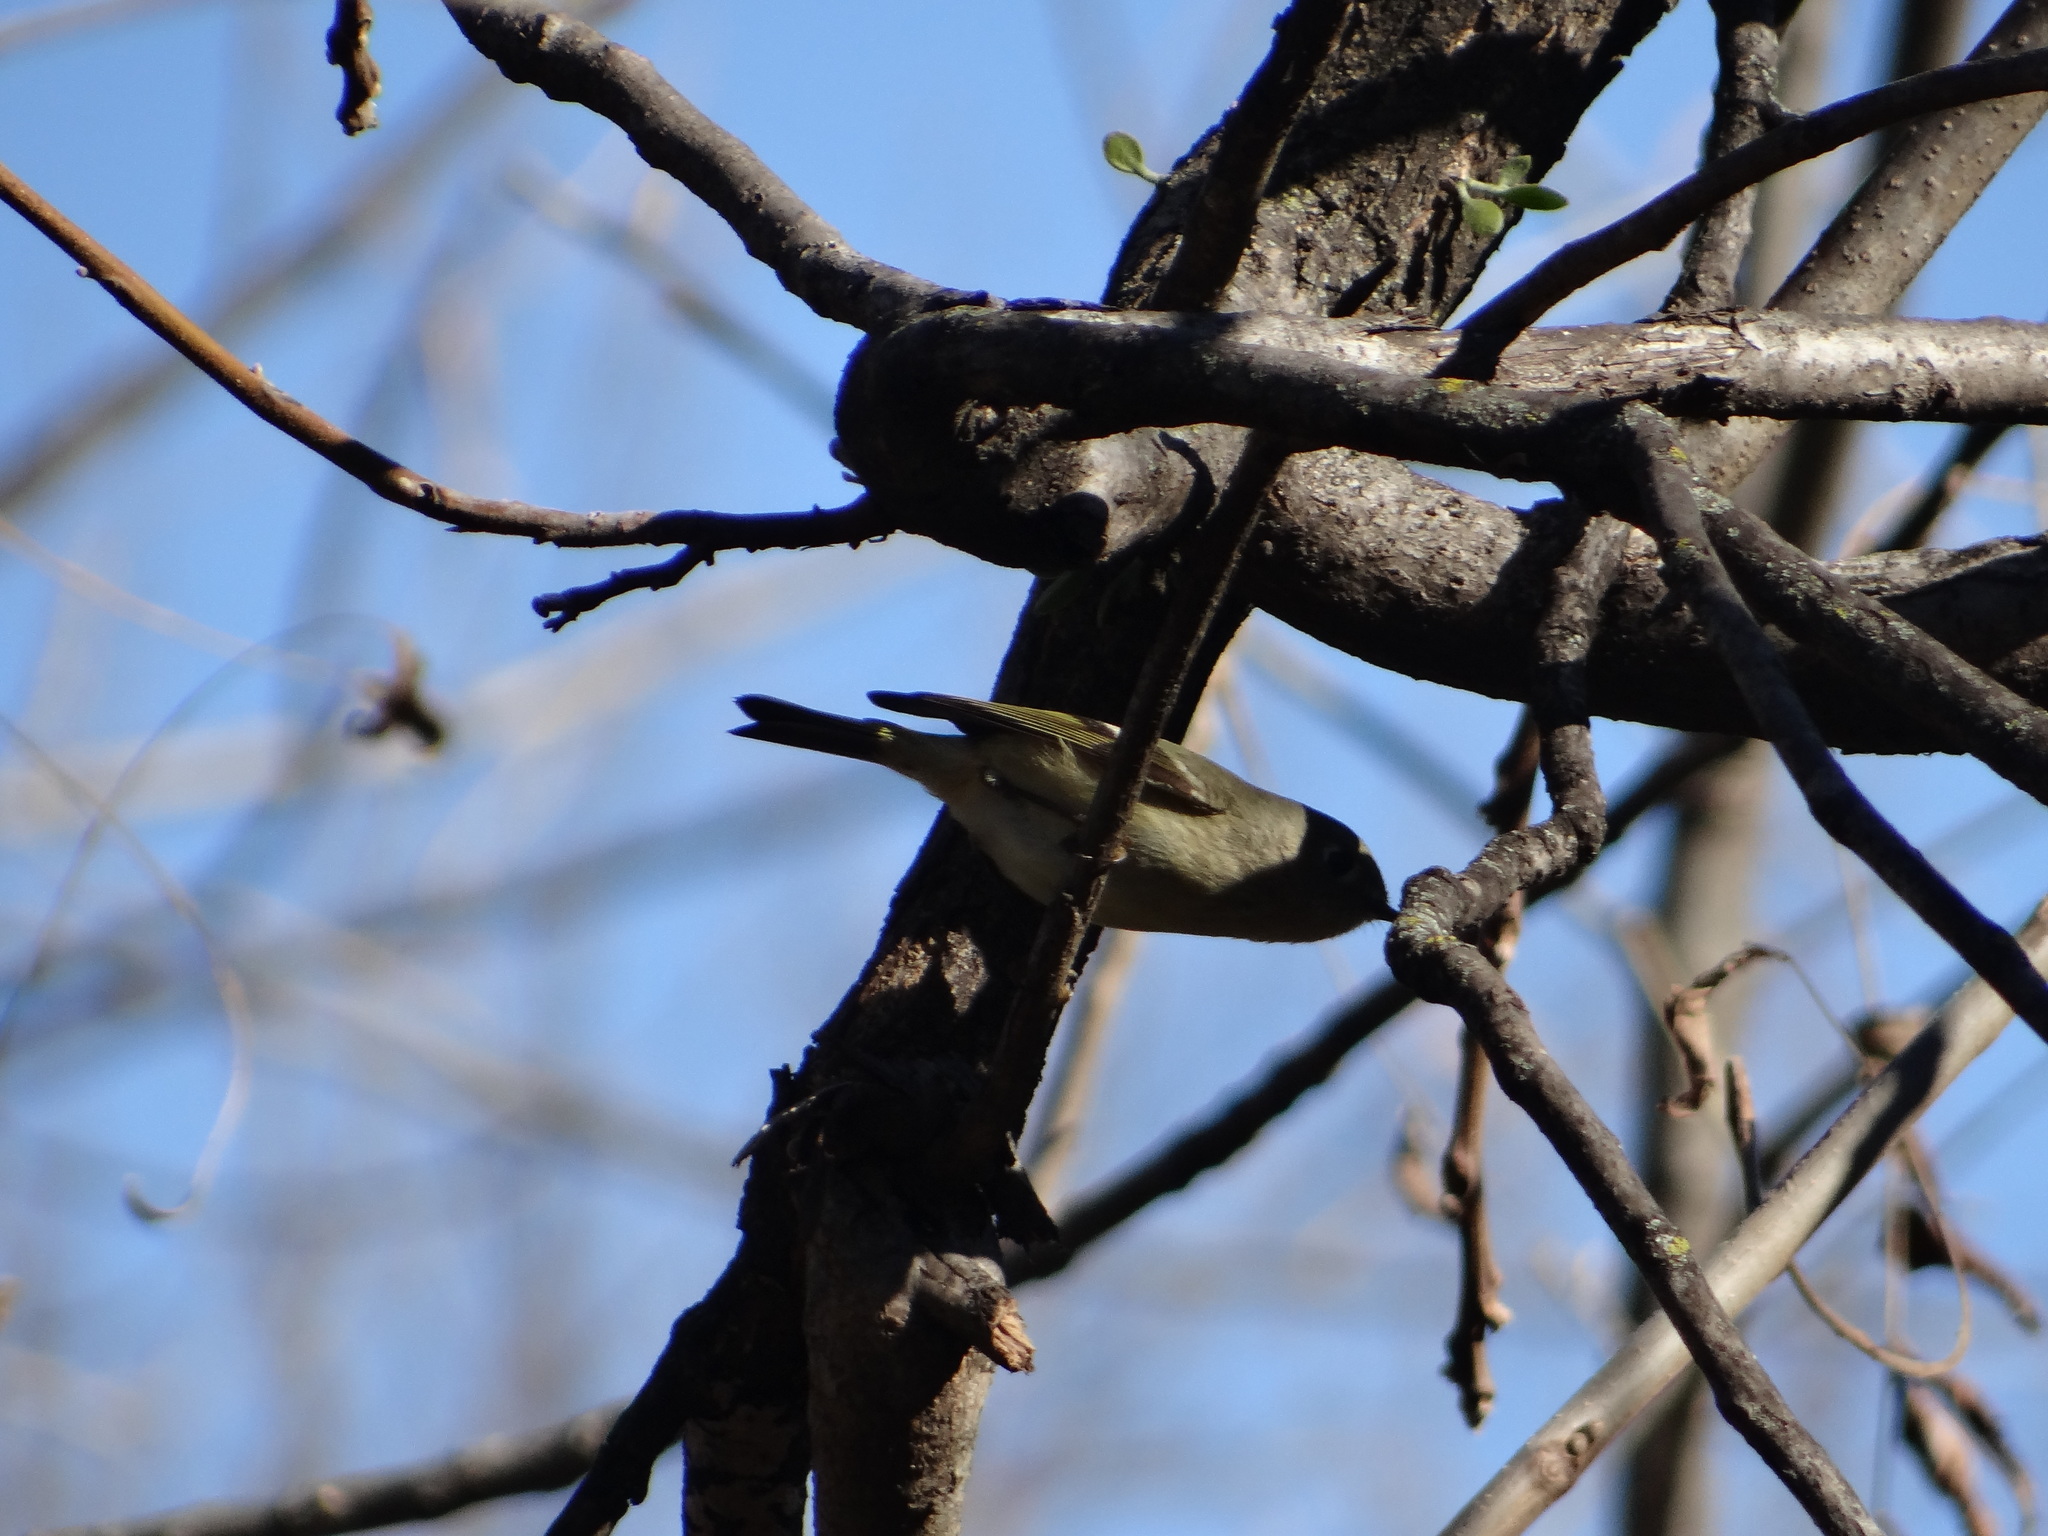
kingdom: Animalia
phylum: Chordata
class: Aves
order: Passeriformes
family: Regulidae
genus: Regulus
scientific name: Regulus calendula
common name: Ruby-crowned kinglet
